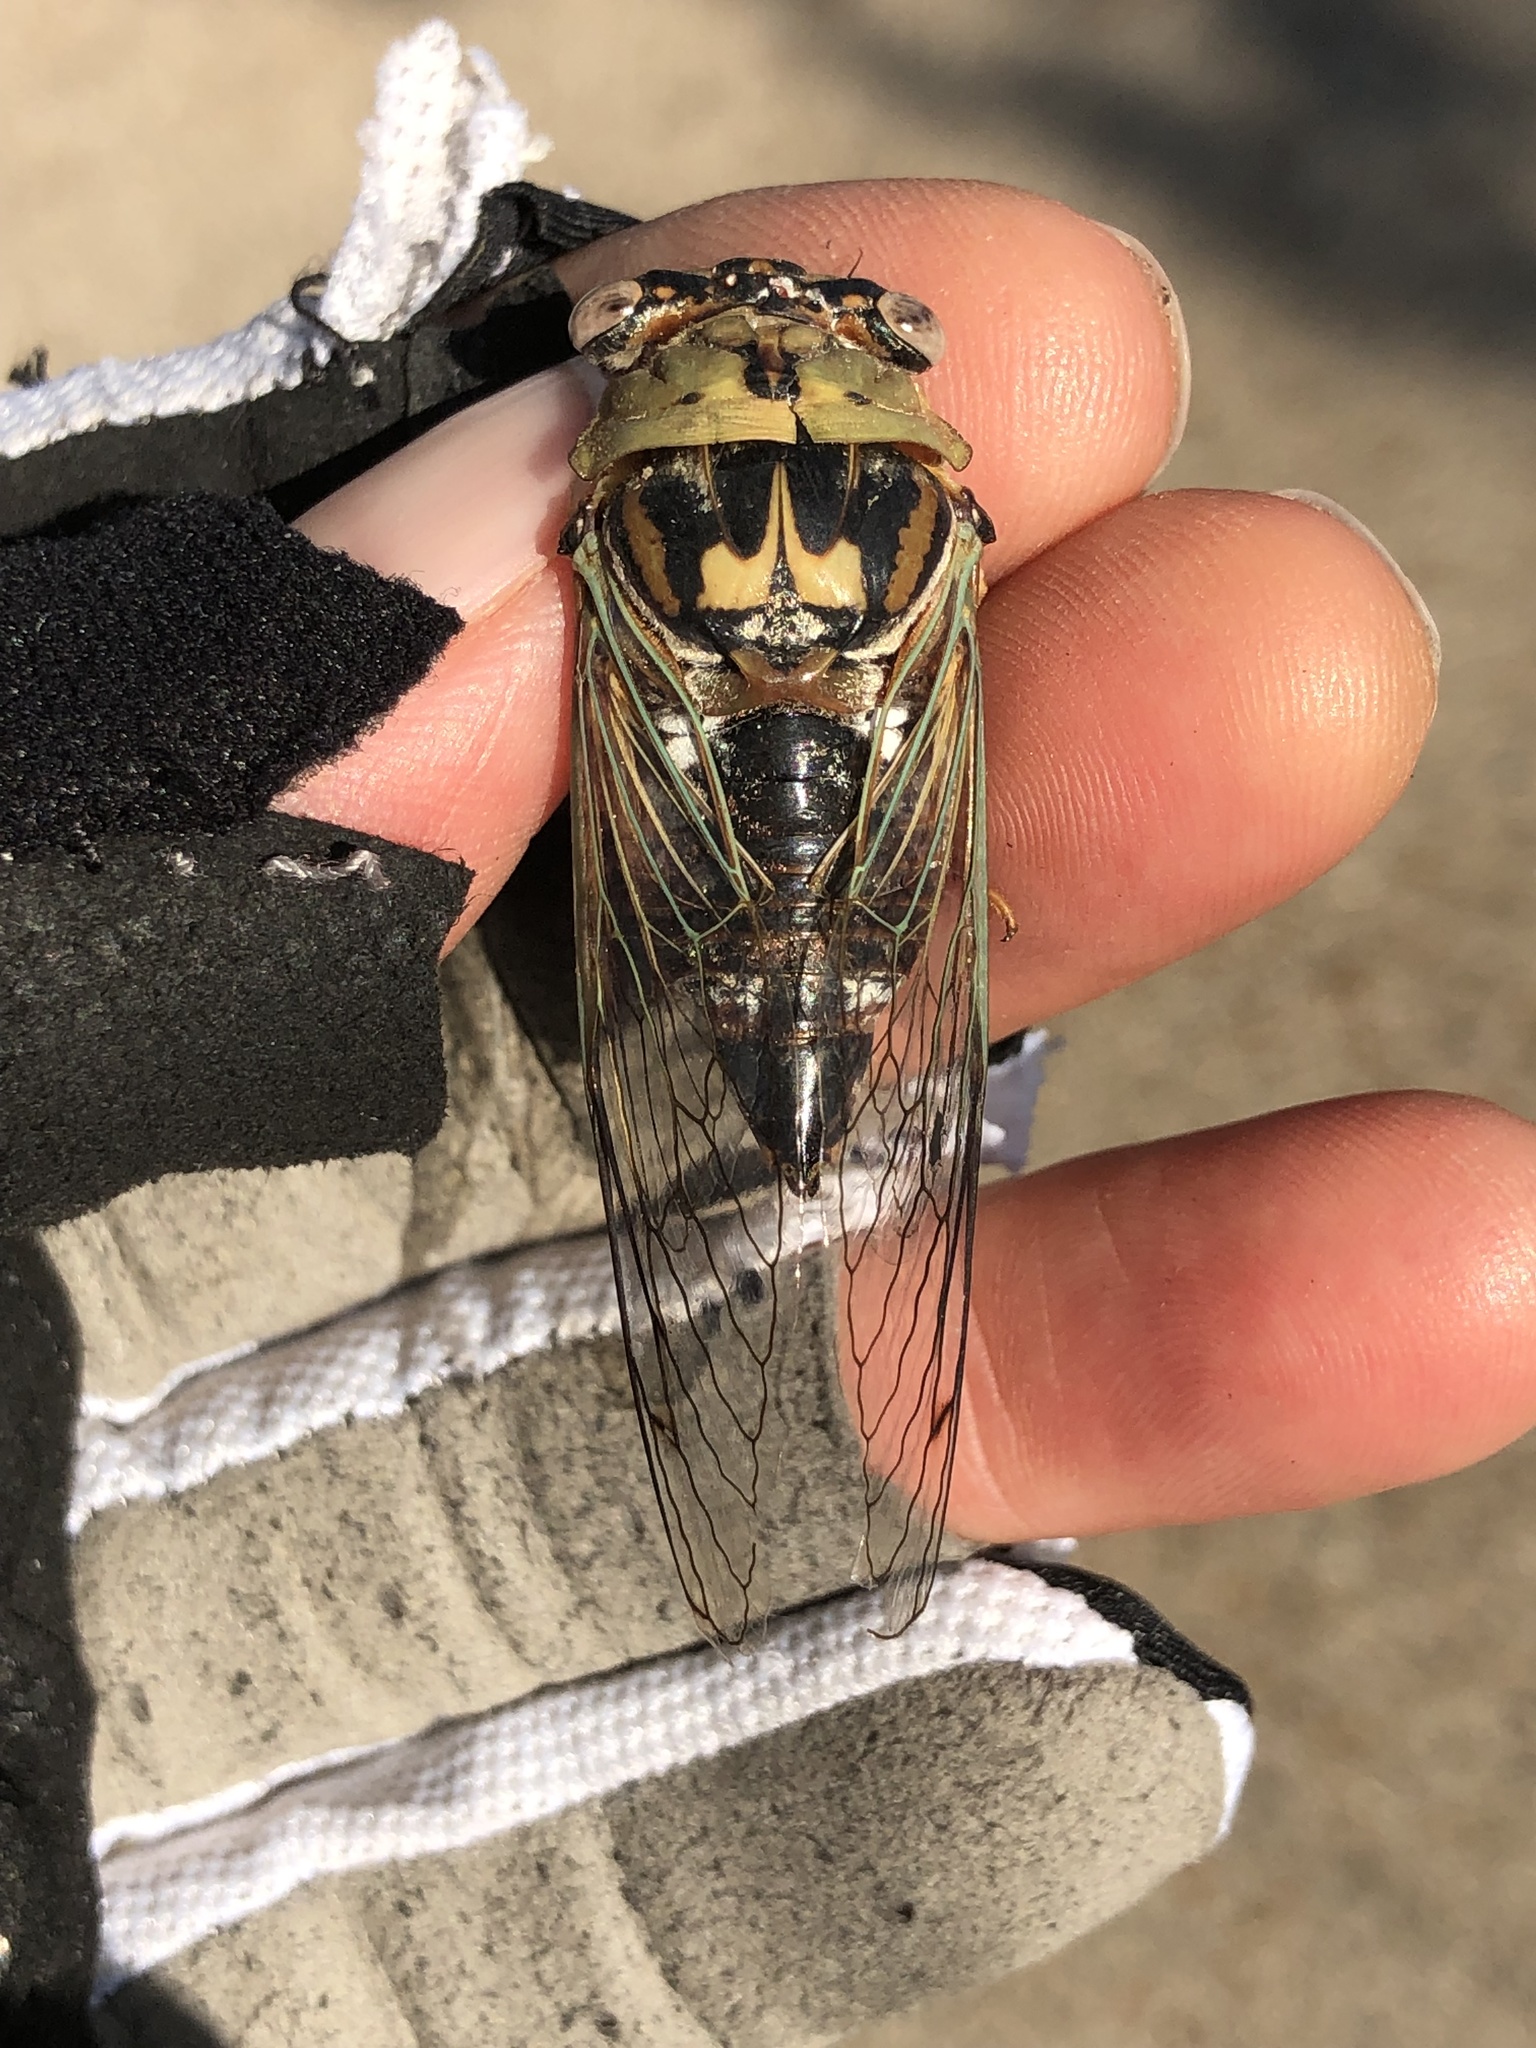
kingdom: Animalia
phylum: Arthropoda
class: Insecta
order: Hemiptera
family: Cicadidae
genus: Megatibicen
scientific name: Megatibicen resh
